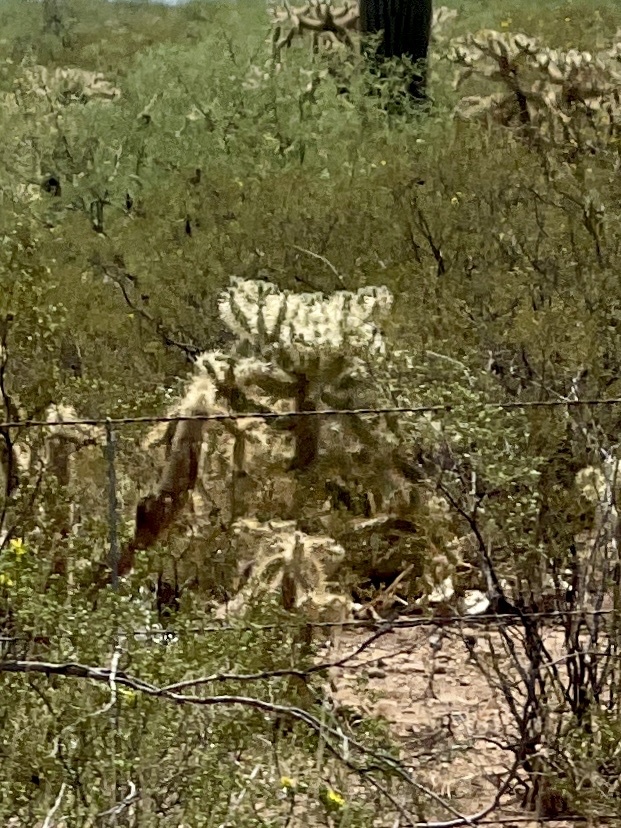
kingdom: Plantae
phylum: Tracheophyta
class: Magnoliopsida
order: Caryophyllales
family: Cactaceae
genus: Cylindropuntia
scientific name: Cylindropuntia fulgida
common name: Jumping cholla
